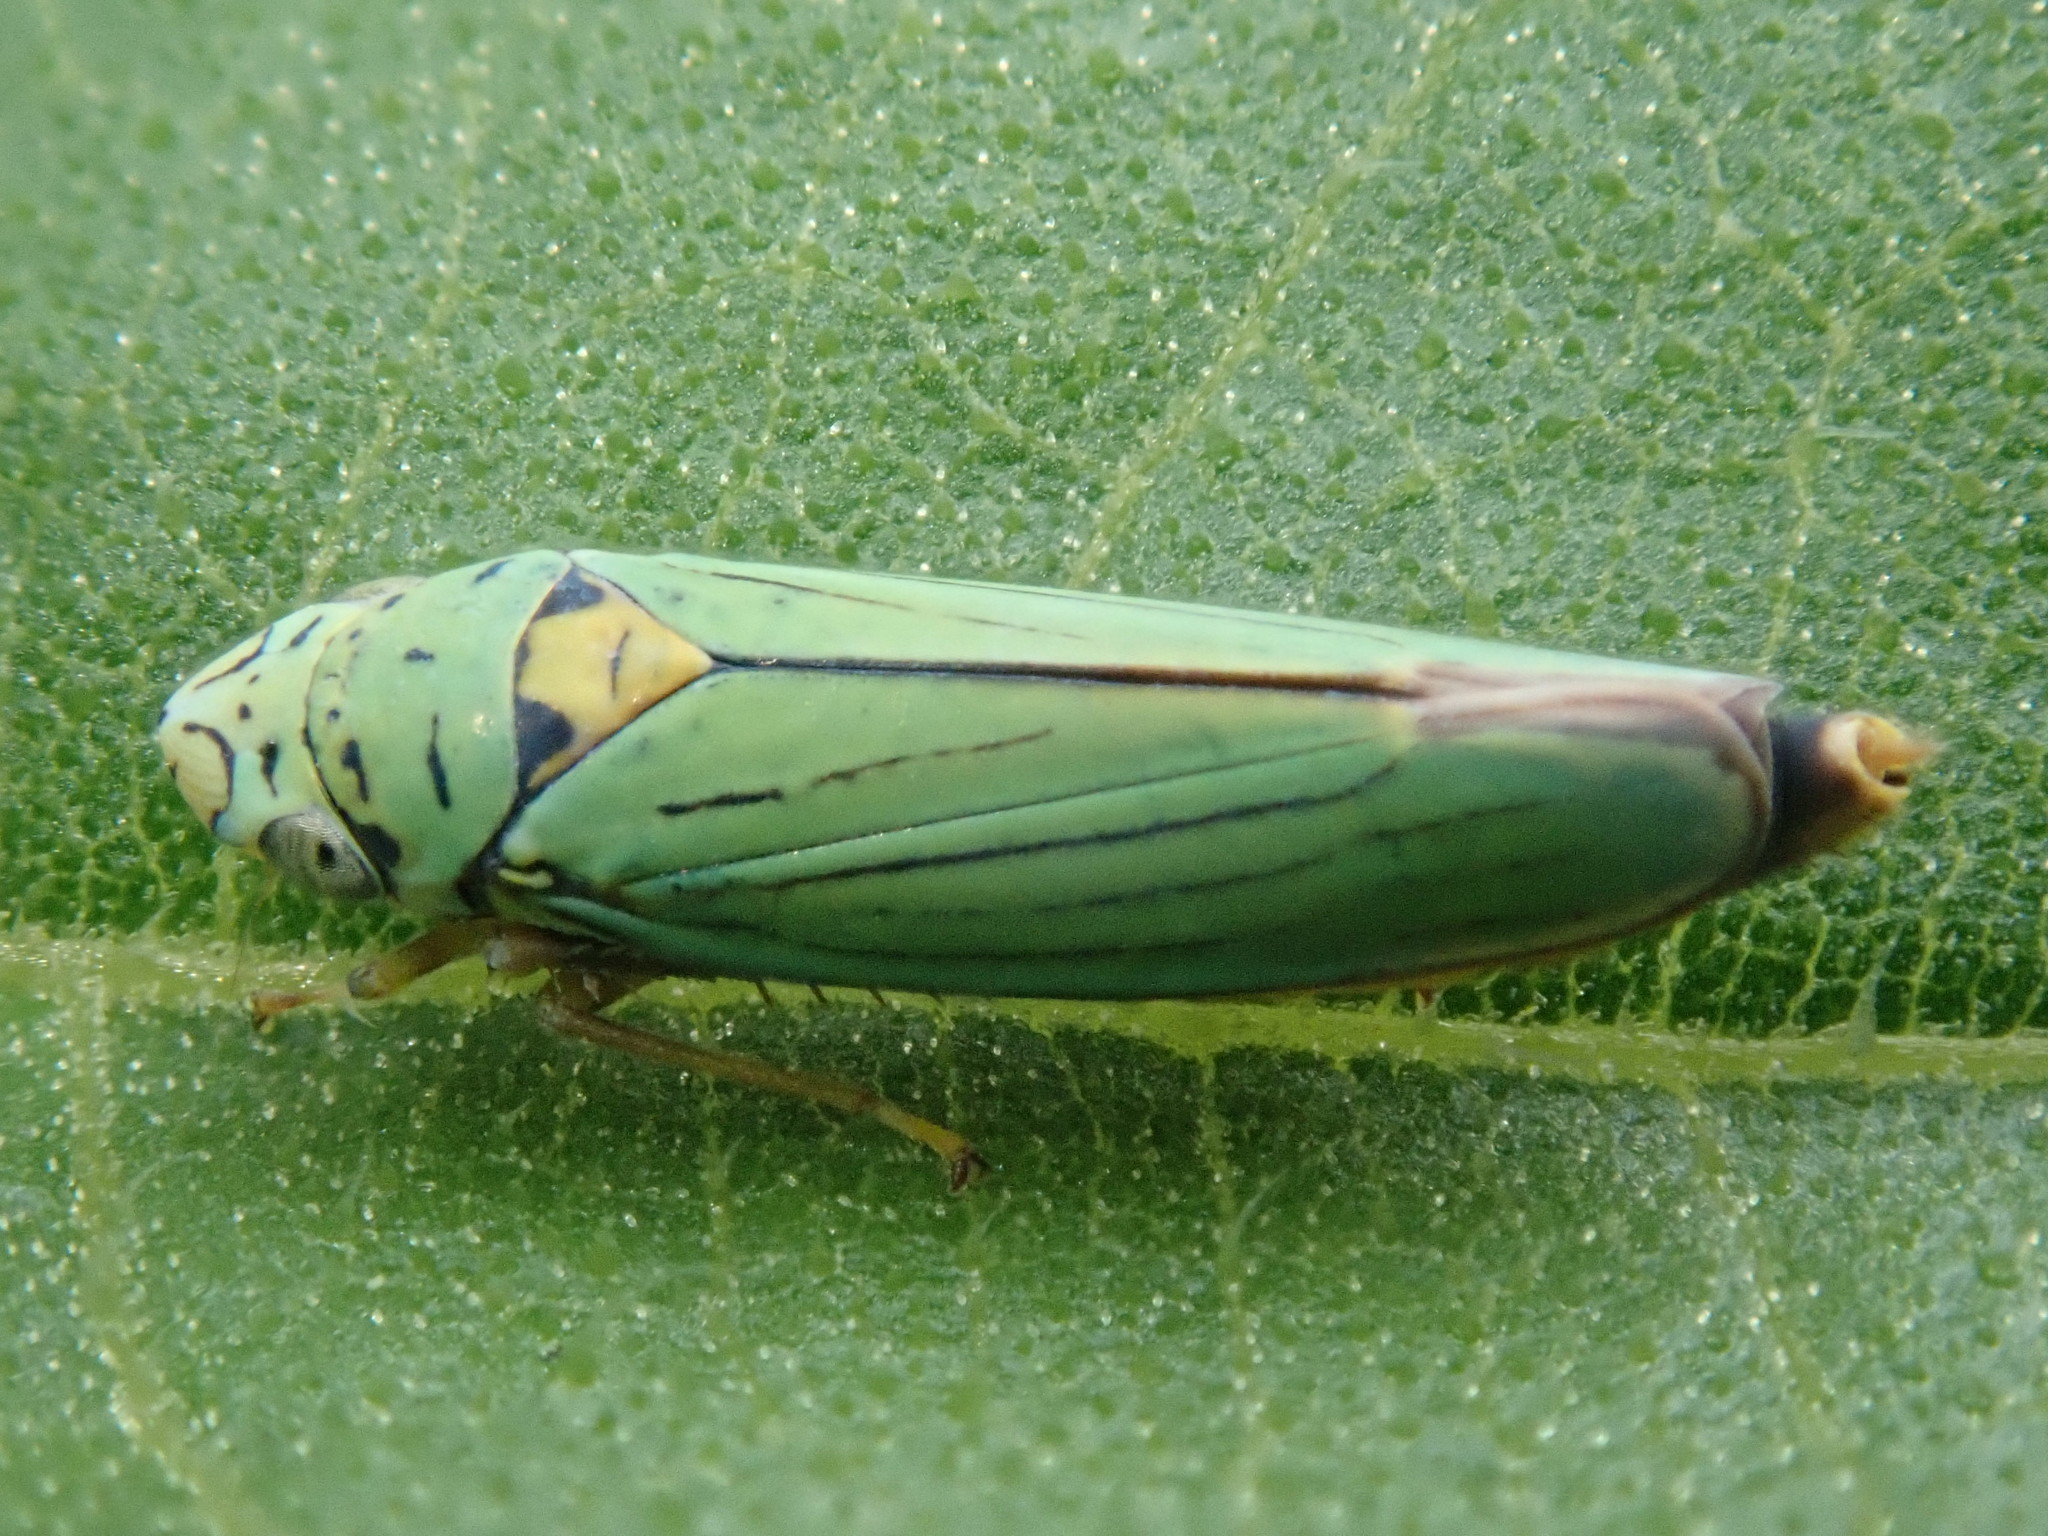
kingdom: Animalia
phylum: Arthropoda
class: Insecta
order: Hemiptera
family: Cicadellidae
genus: Graphocephala
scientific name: Graphocephala atropunctata
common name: Blue-green sharpshooter
